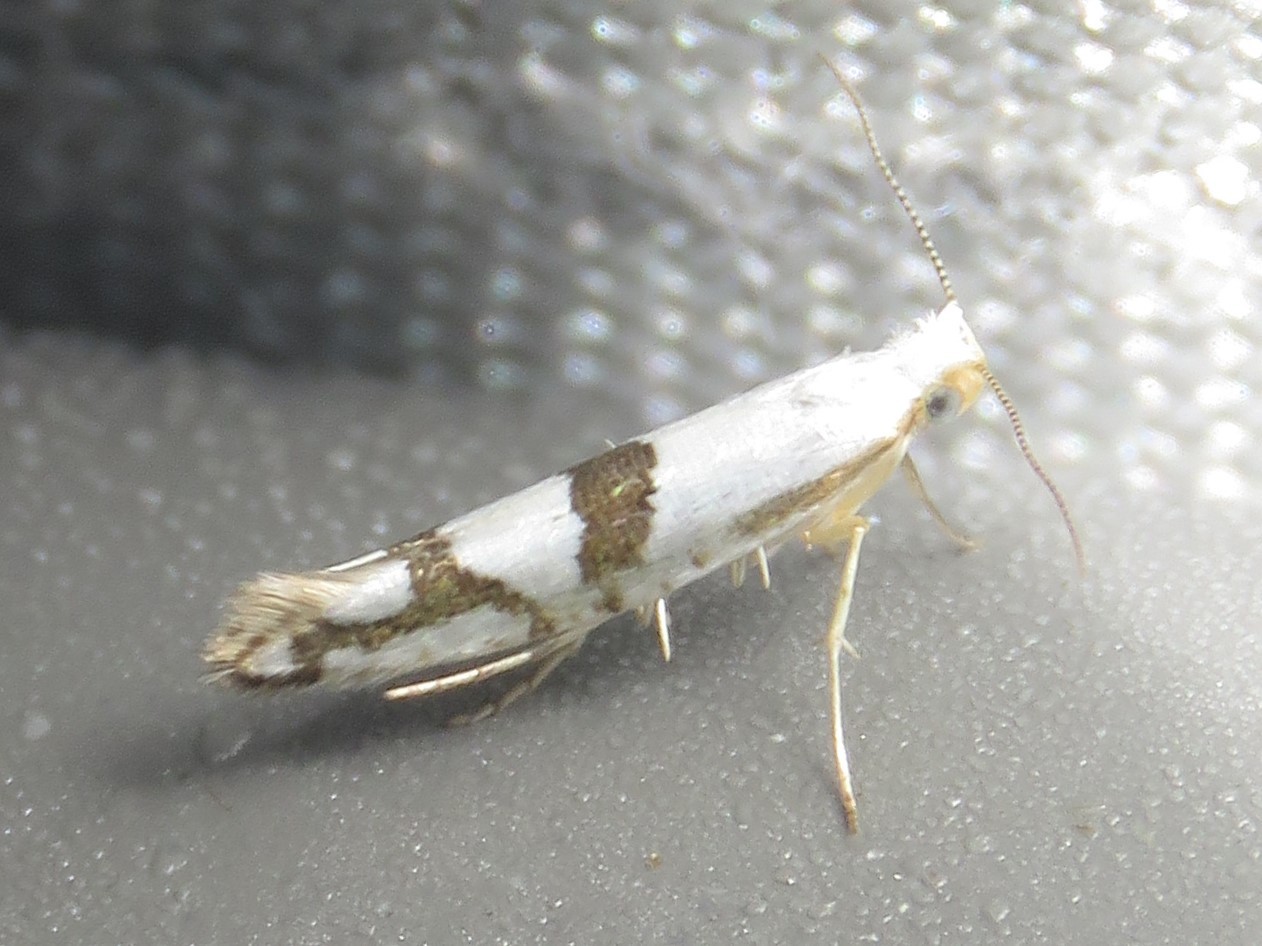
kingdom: Animalia
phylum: Arthropoda
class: Insecta
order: Lepidoptera
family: Argyresthiidae
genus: Argyresthia
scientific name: Argyresthia oreasella
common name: Cherry shoot borer moth
